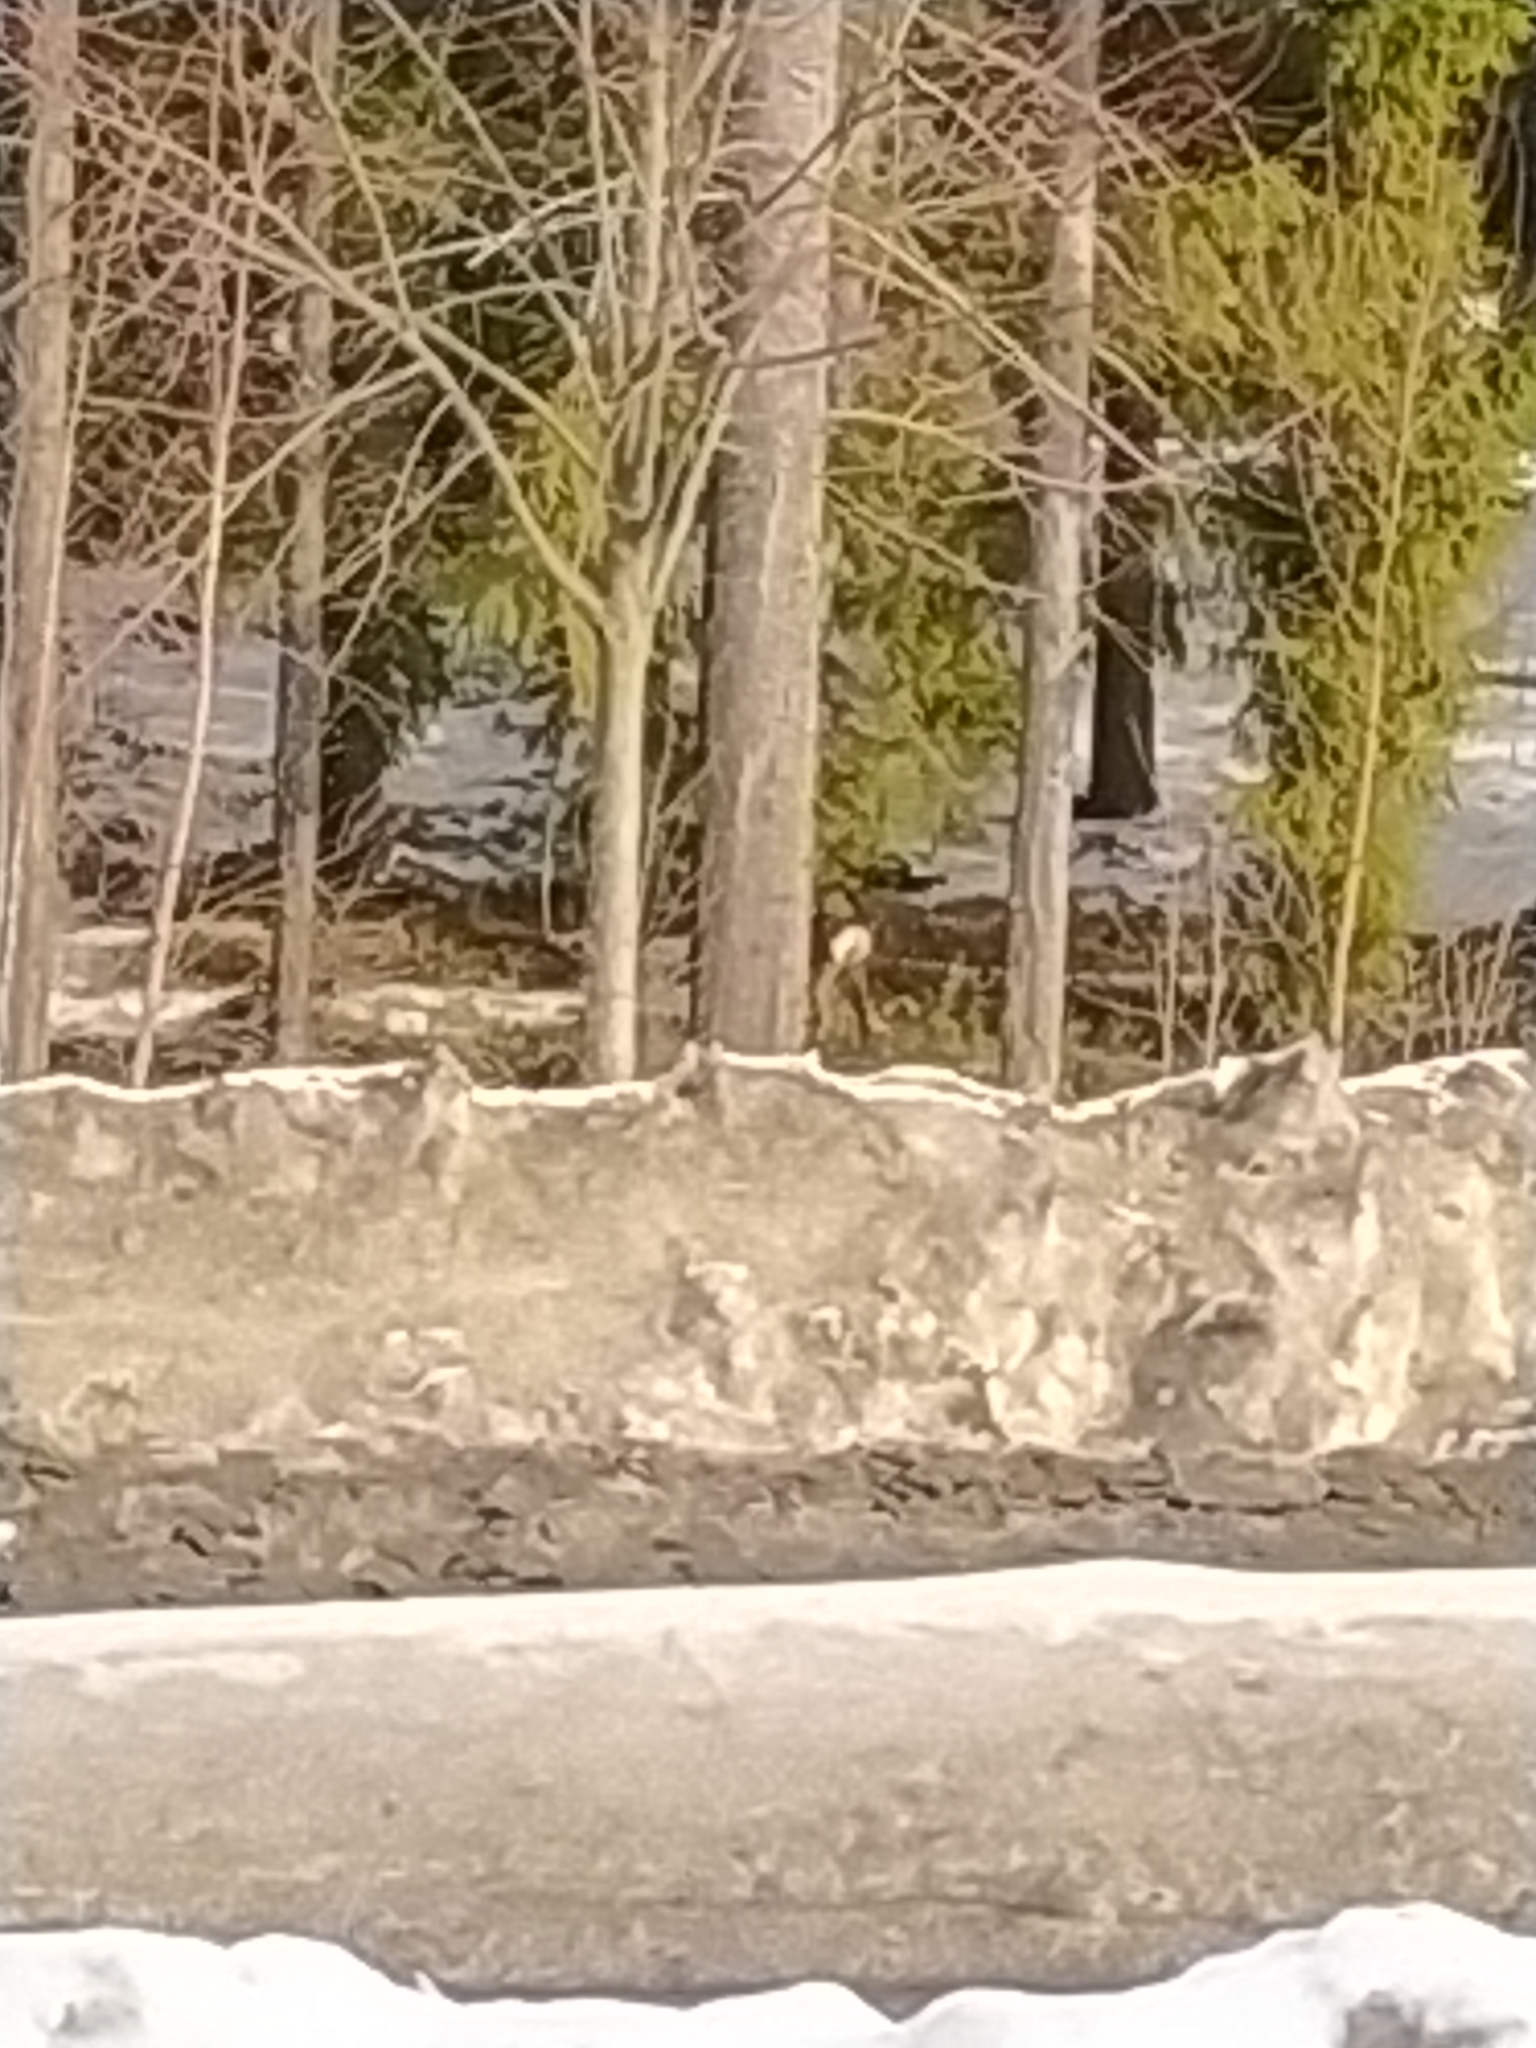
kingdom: Animalia
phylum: Chordata
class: Mammalia
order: Artiodactyla
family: Cervidae
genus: Capreolus
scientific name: Capreolus capreolus
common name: Western roe deer
